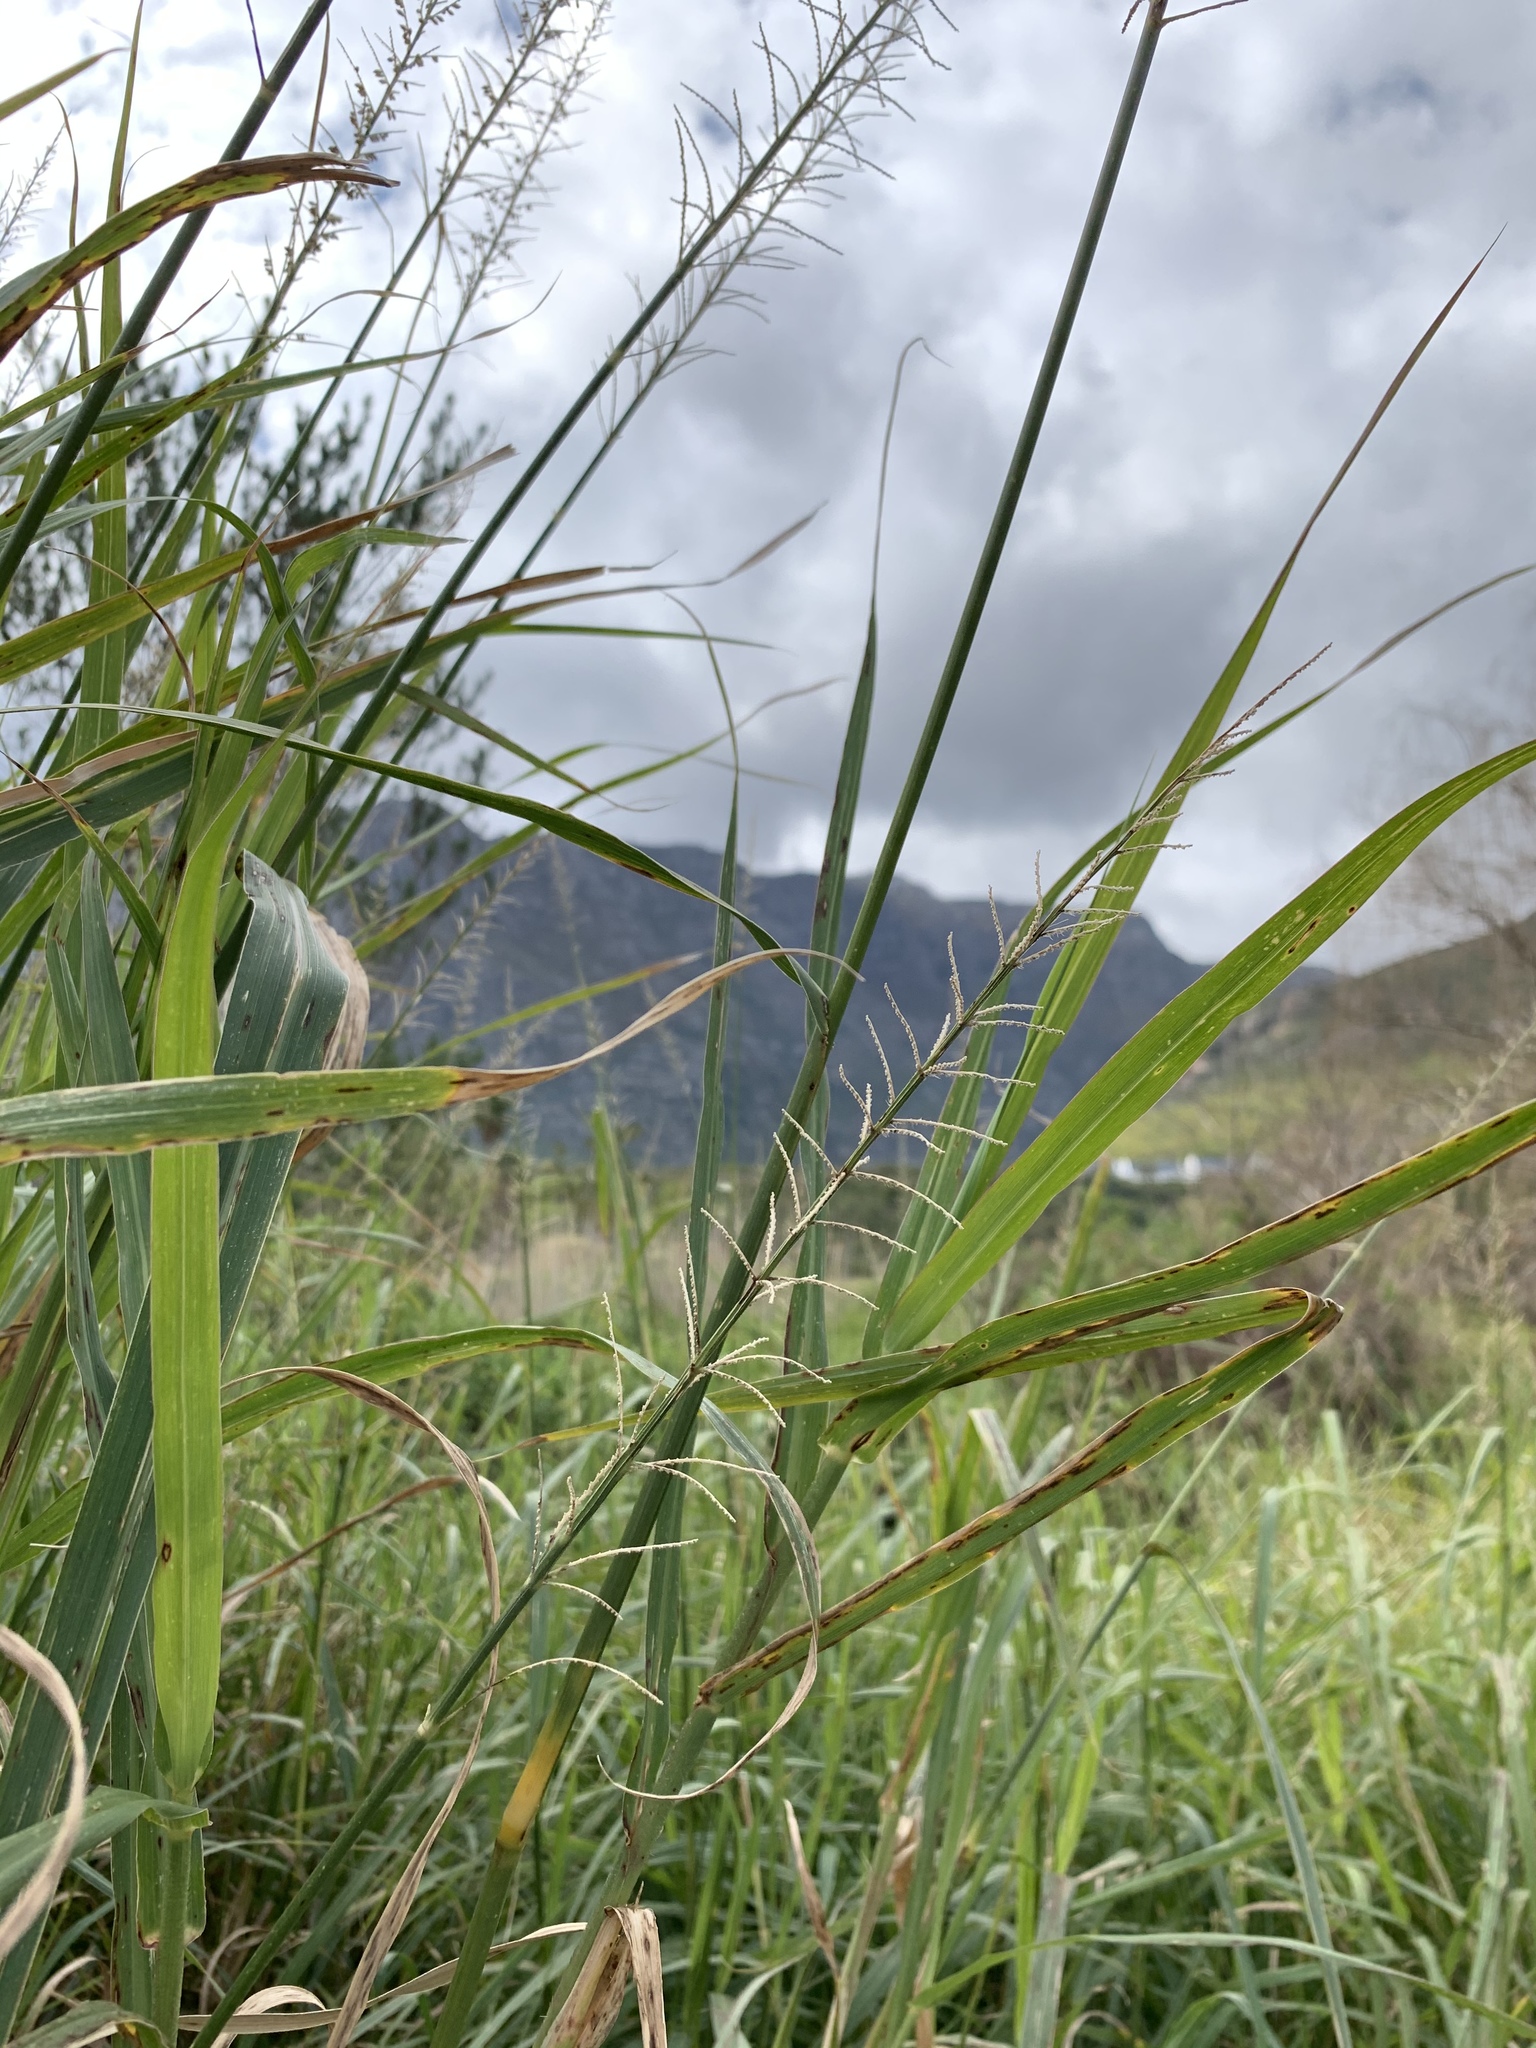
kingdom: Plantae
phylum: Tracheophyta
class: Liliopsida
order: Poales
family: Poaceae
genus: Echinochloa
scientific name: Echinochloa pyramidalis
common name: Antelope grass
